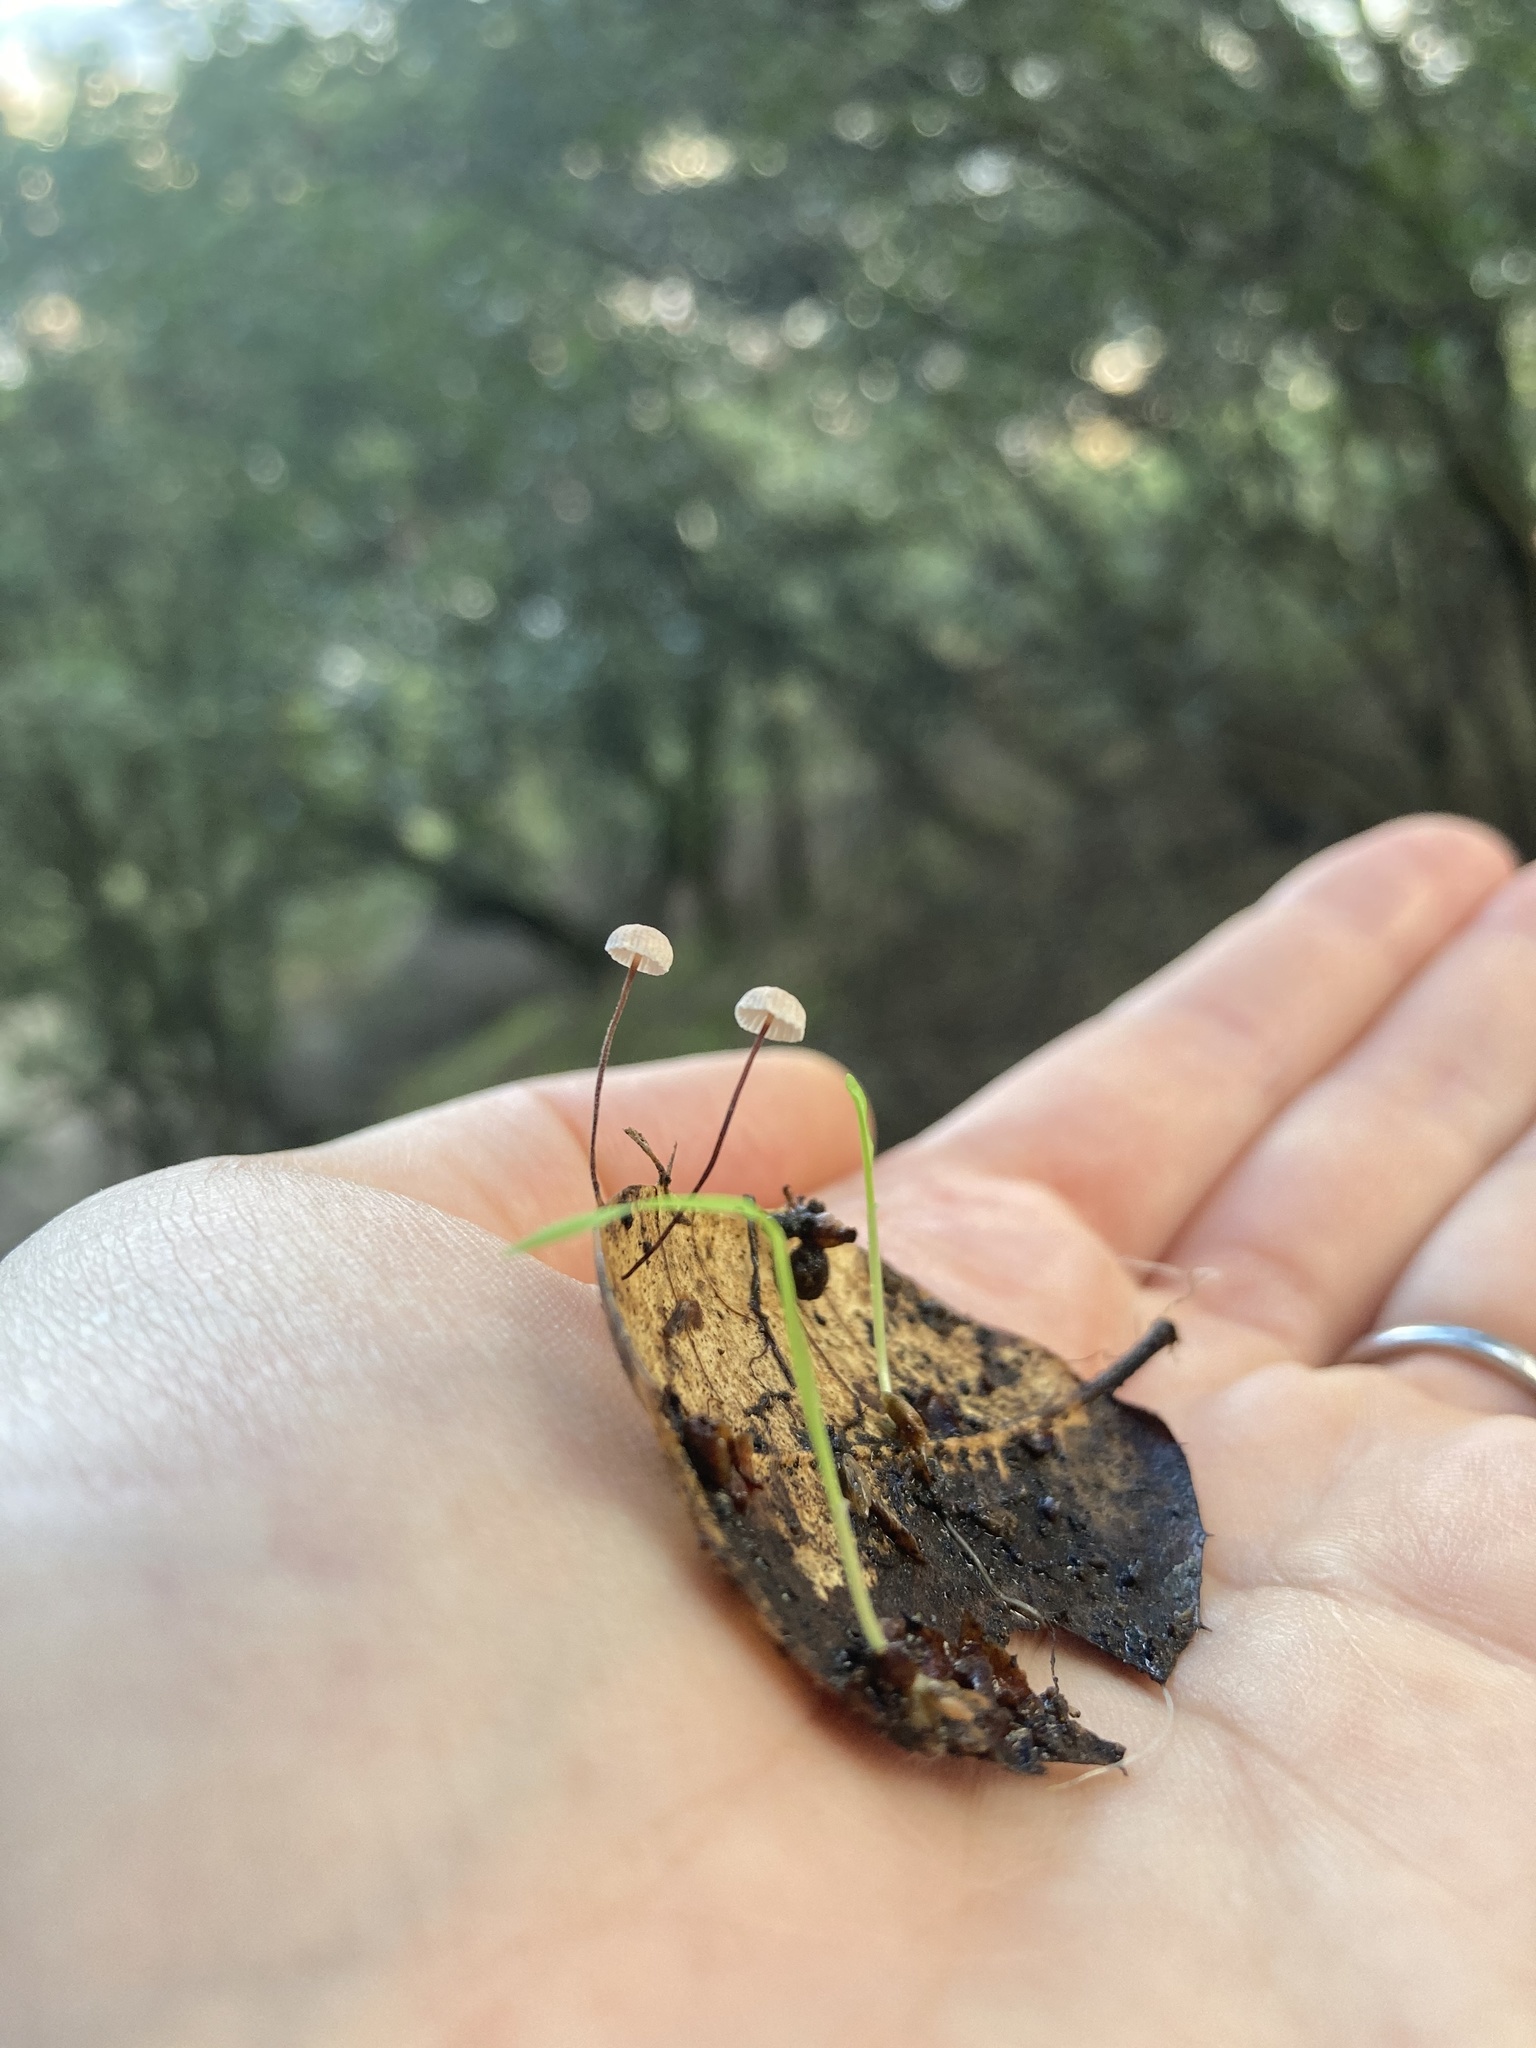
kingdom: Fungi
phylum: Basidiomycota
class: Agaricomycetes
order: Agaricales
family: Omphalotaceae
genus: Collybiopsis
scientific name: Collybiopsis quercophila
